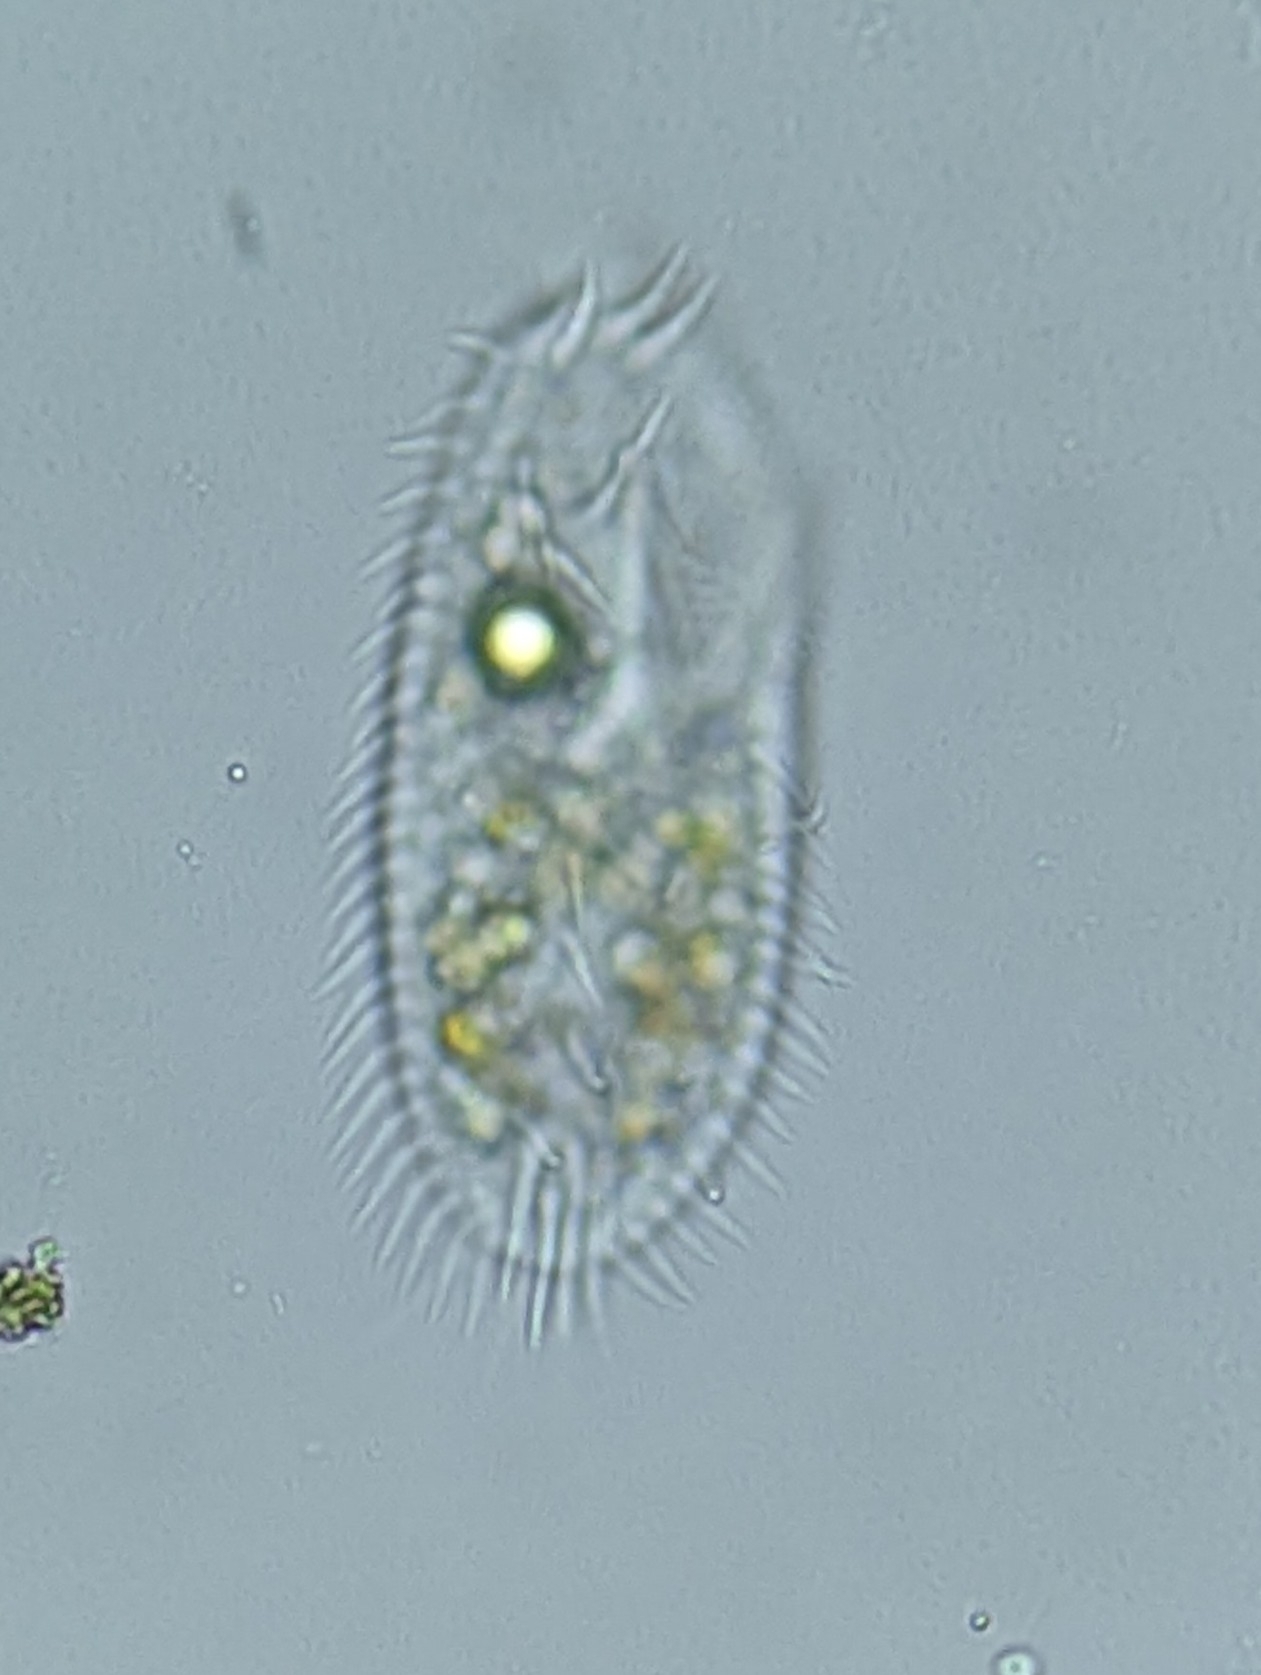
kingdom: Chromista
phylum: Ciliophora
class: Hypotrichea
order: Oxytrichida
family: Oxytrichidae
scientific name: Oxytrichidae
